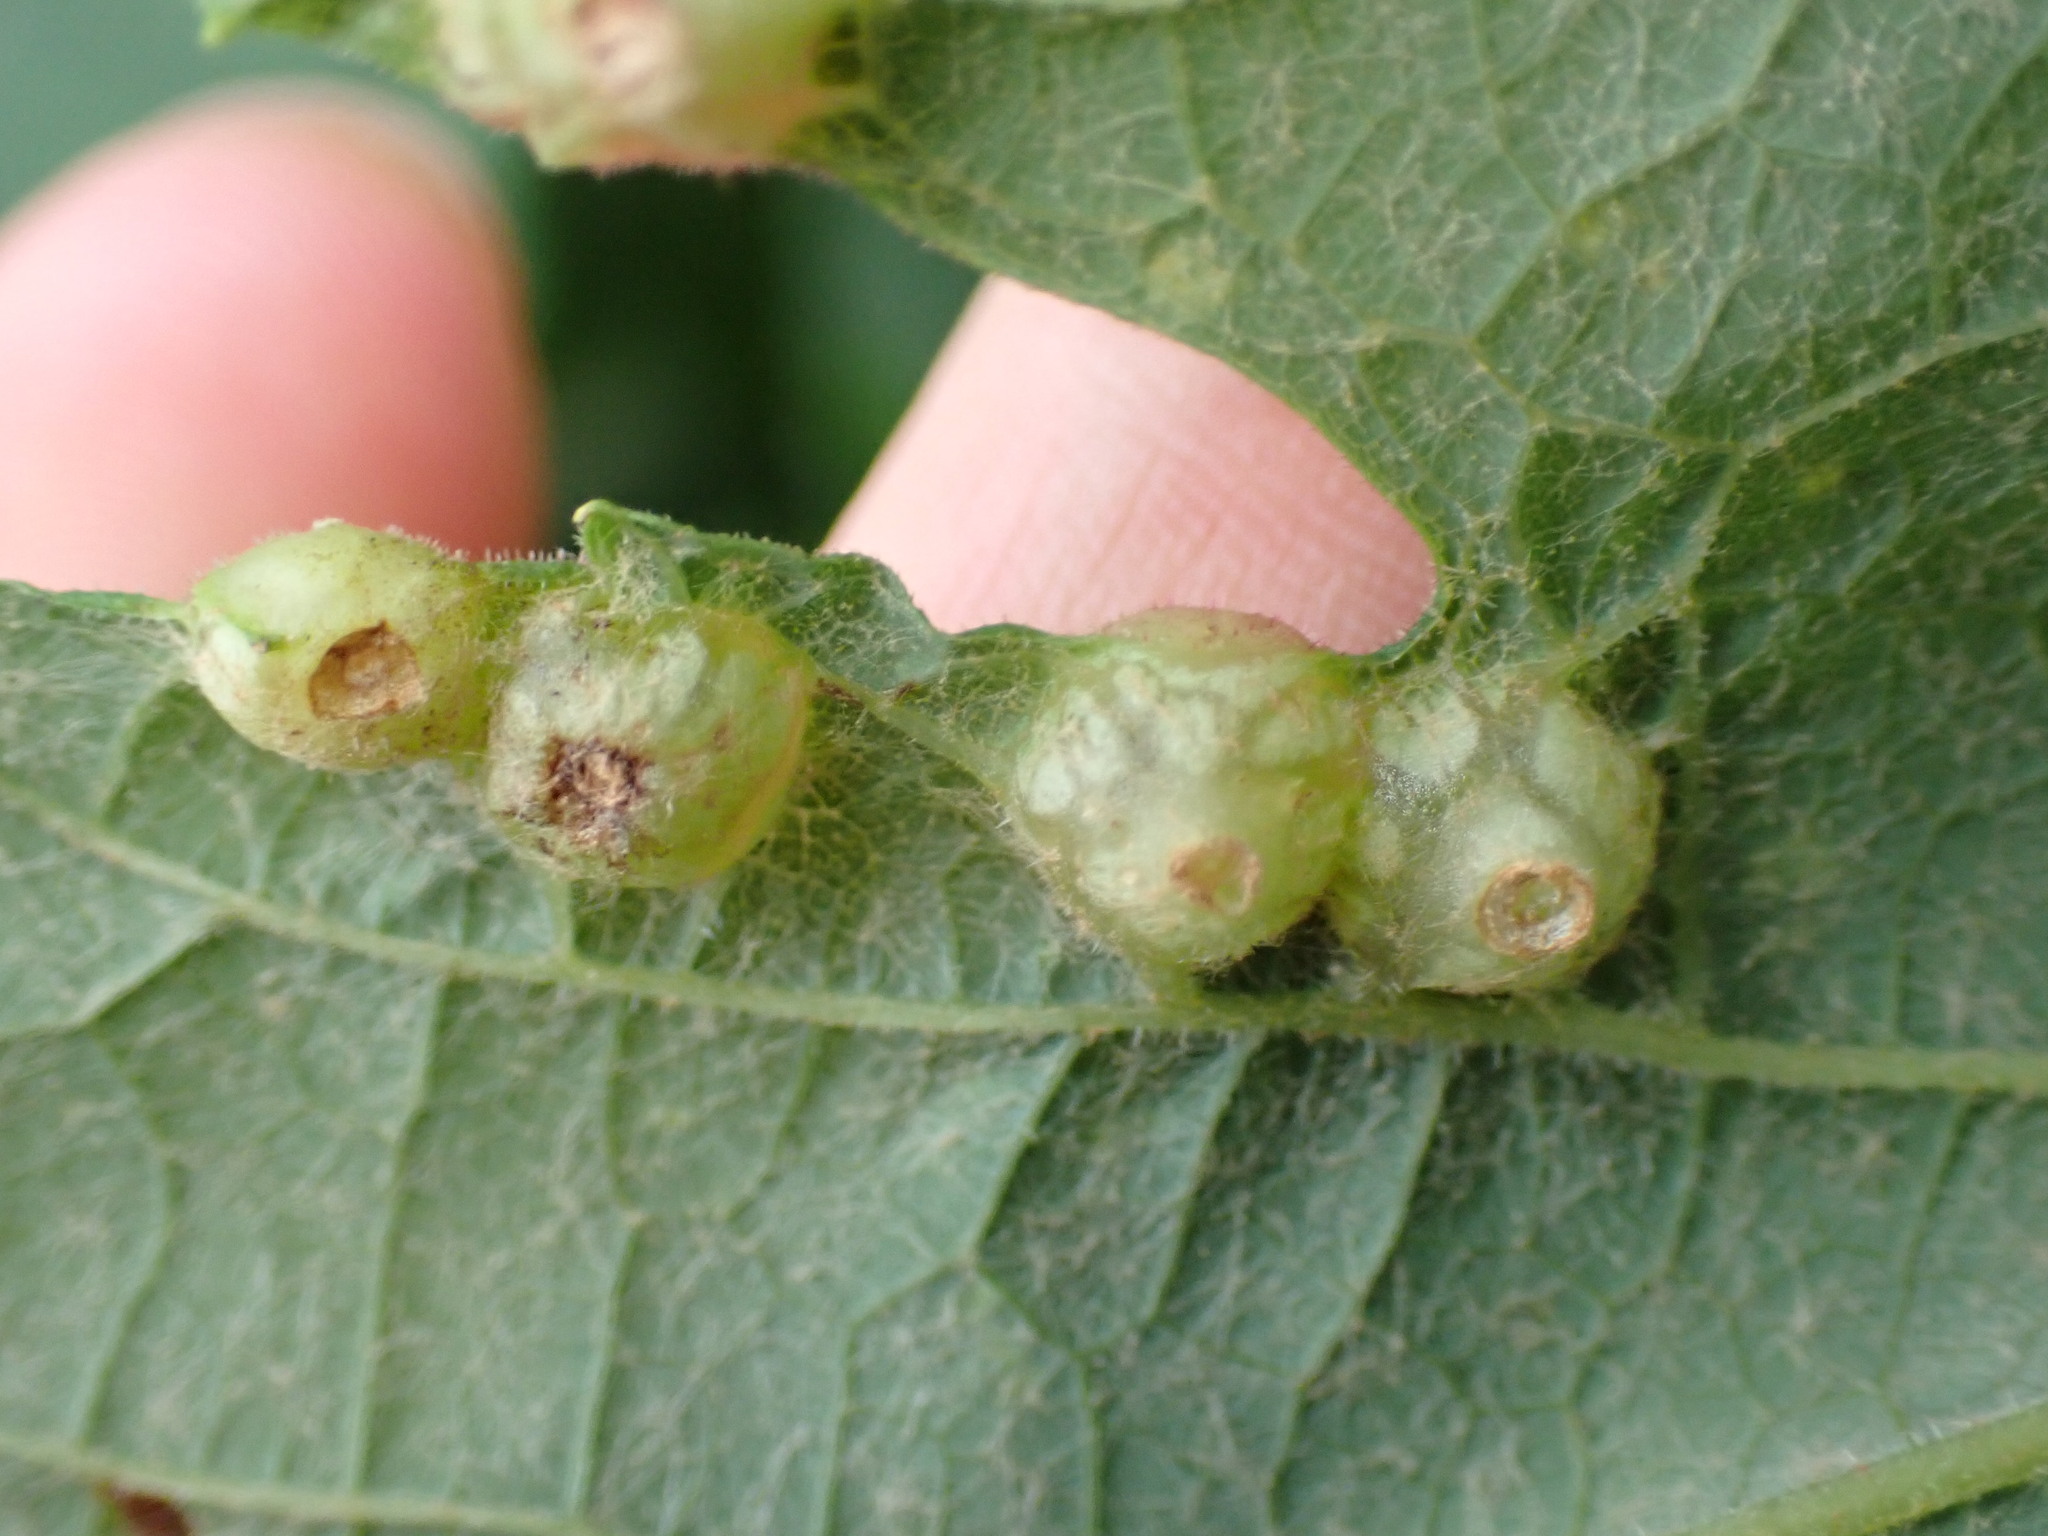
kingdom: Animalia
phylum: Arthropoda
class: Insecta
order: Diptera
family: Cecidomyiidae
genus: Vitisiella
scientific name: Vitisiella brevicauda
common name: Grape tumid gallmaker midge
